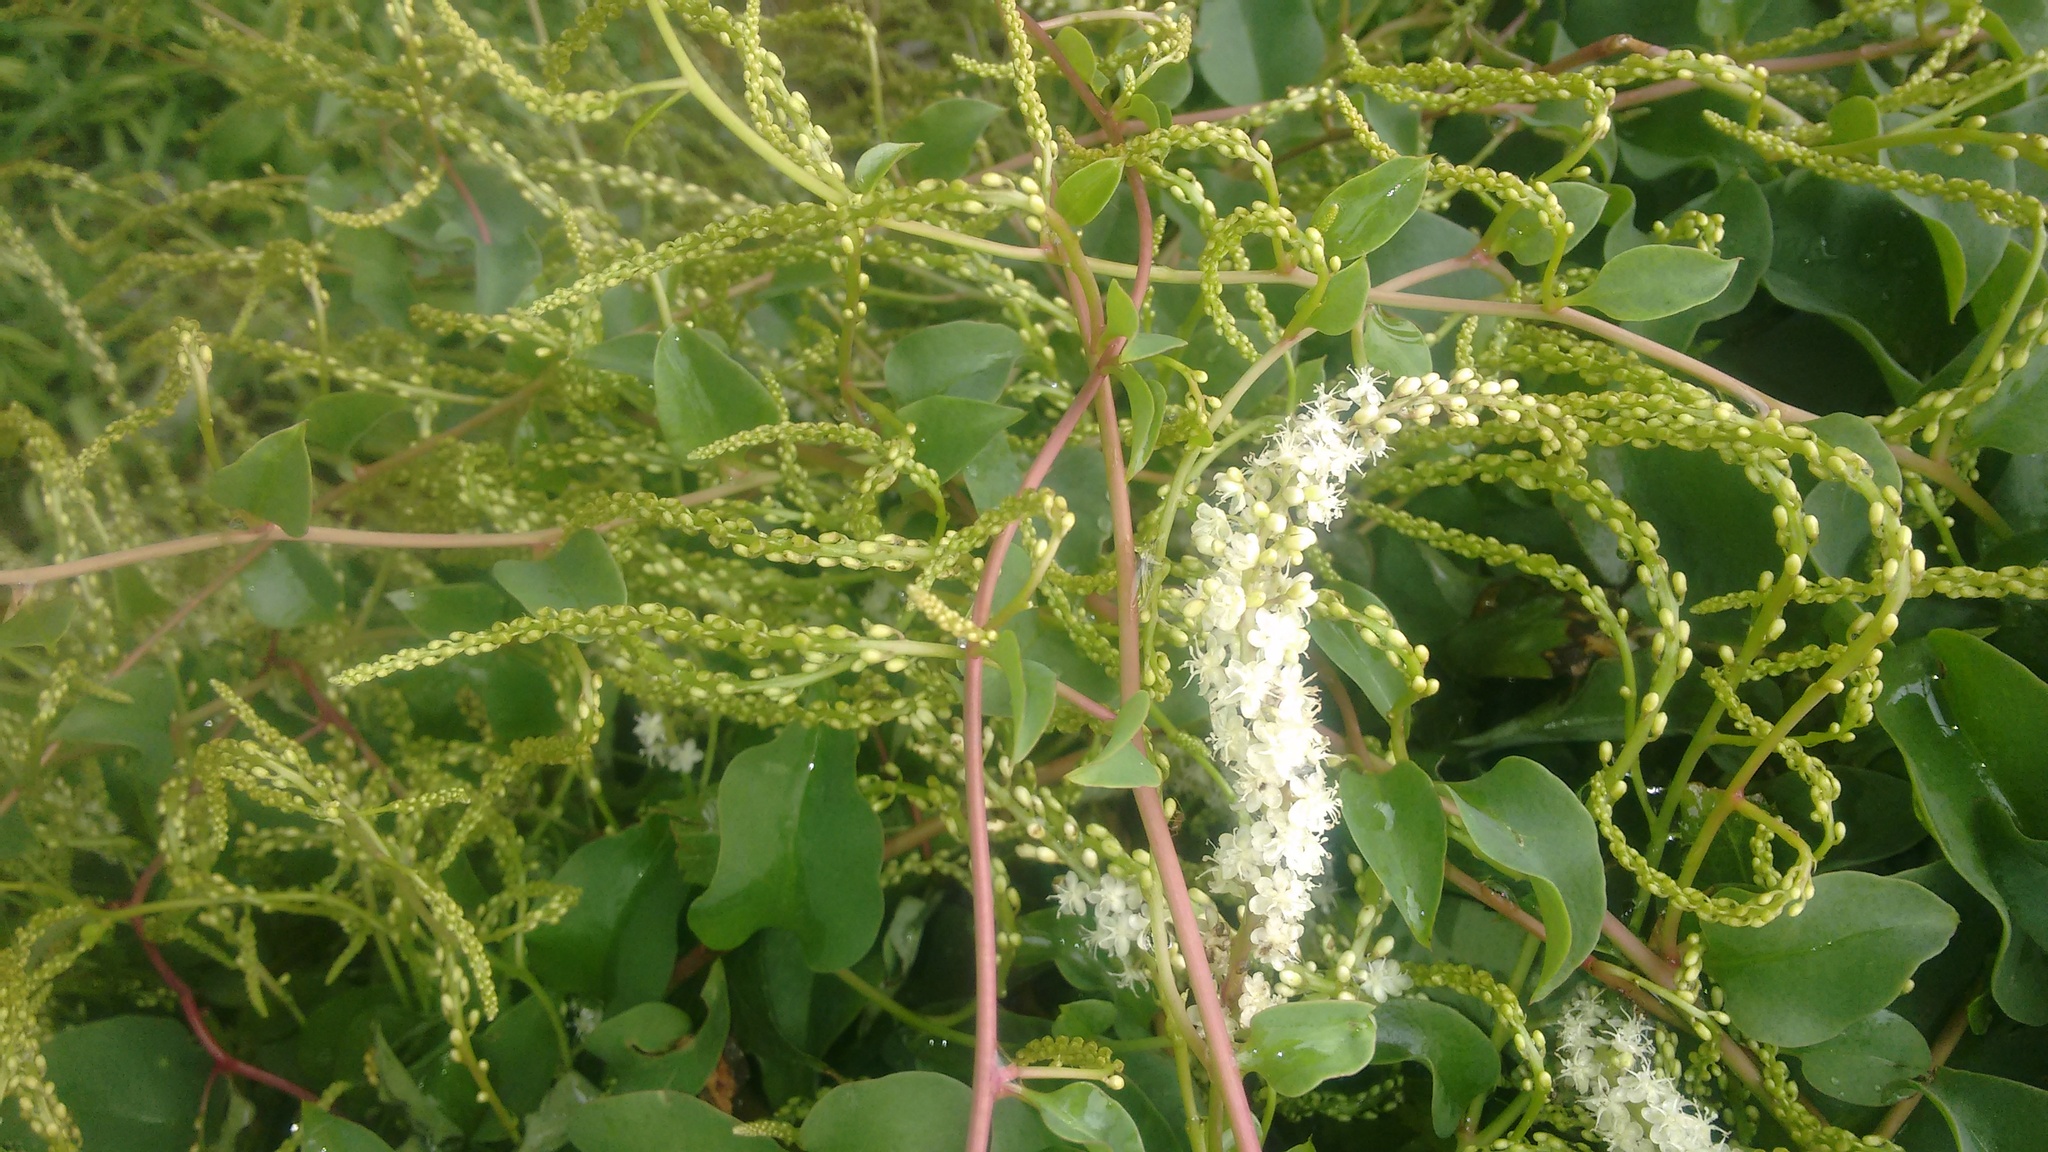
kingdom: Plantae
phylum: Tracheophyta
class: Magnoliopsida
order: Caryophyllales
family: Basellaceae
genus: Anredera
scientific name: Anredera cordifolia
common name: Heartleaf madeiravine
